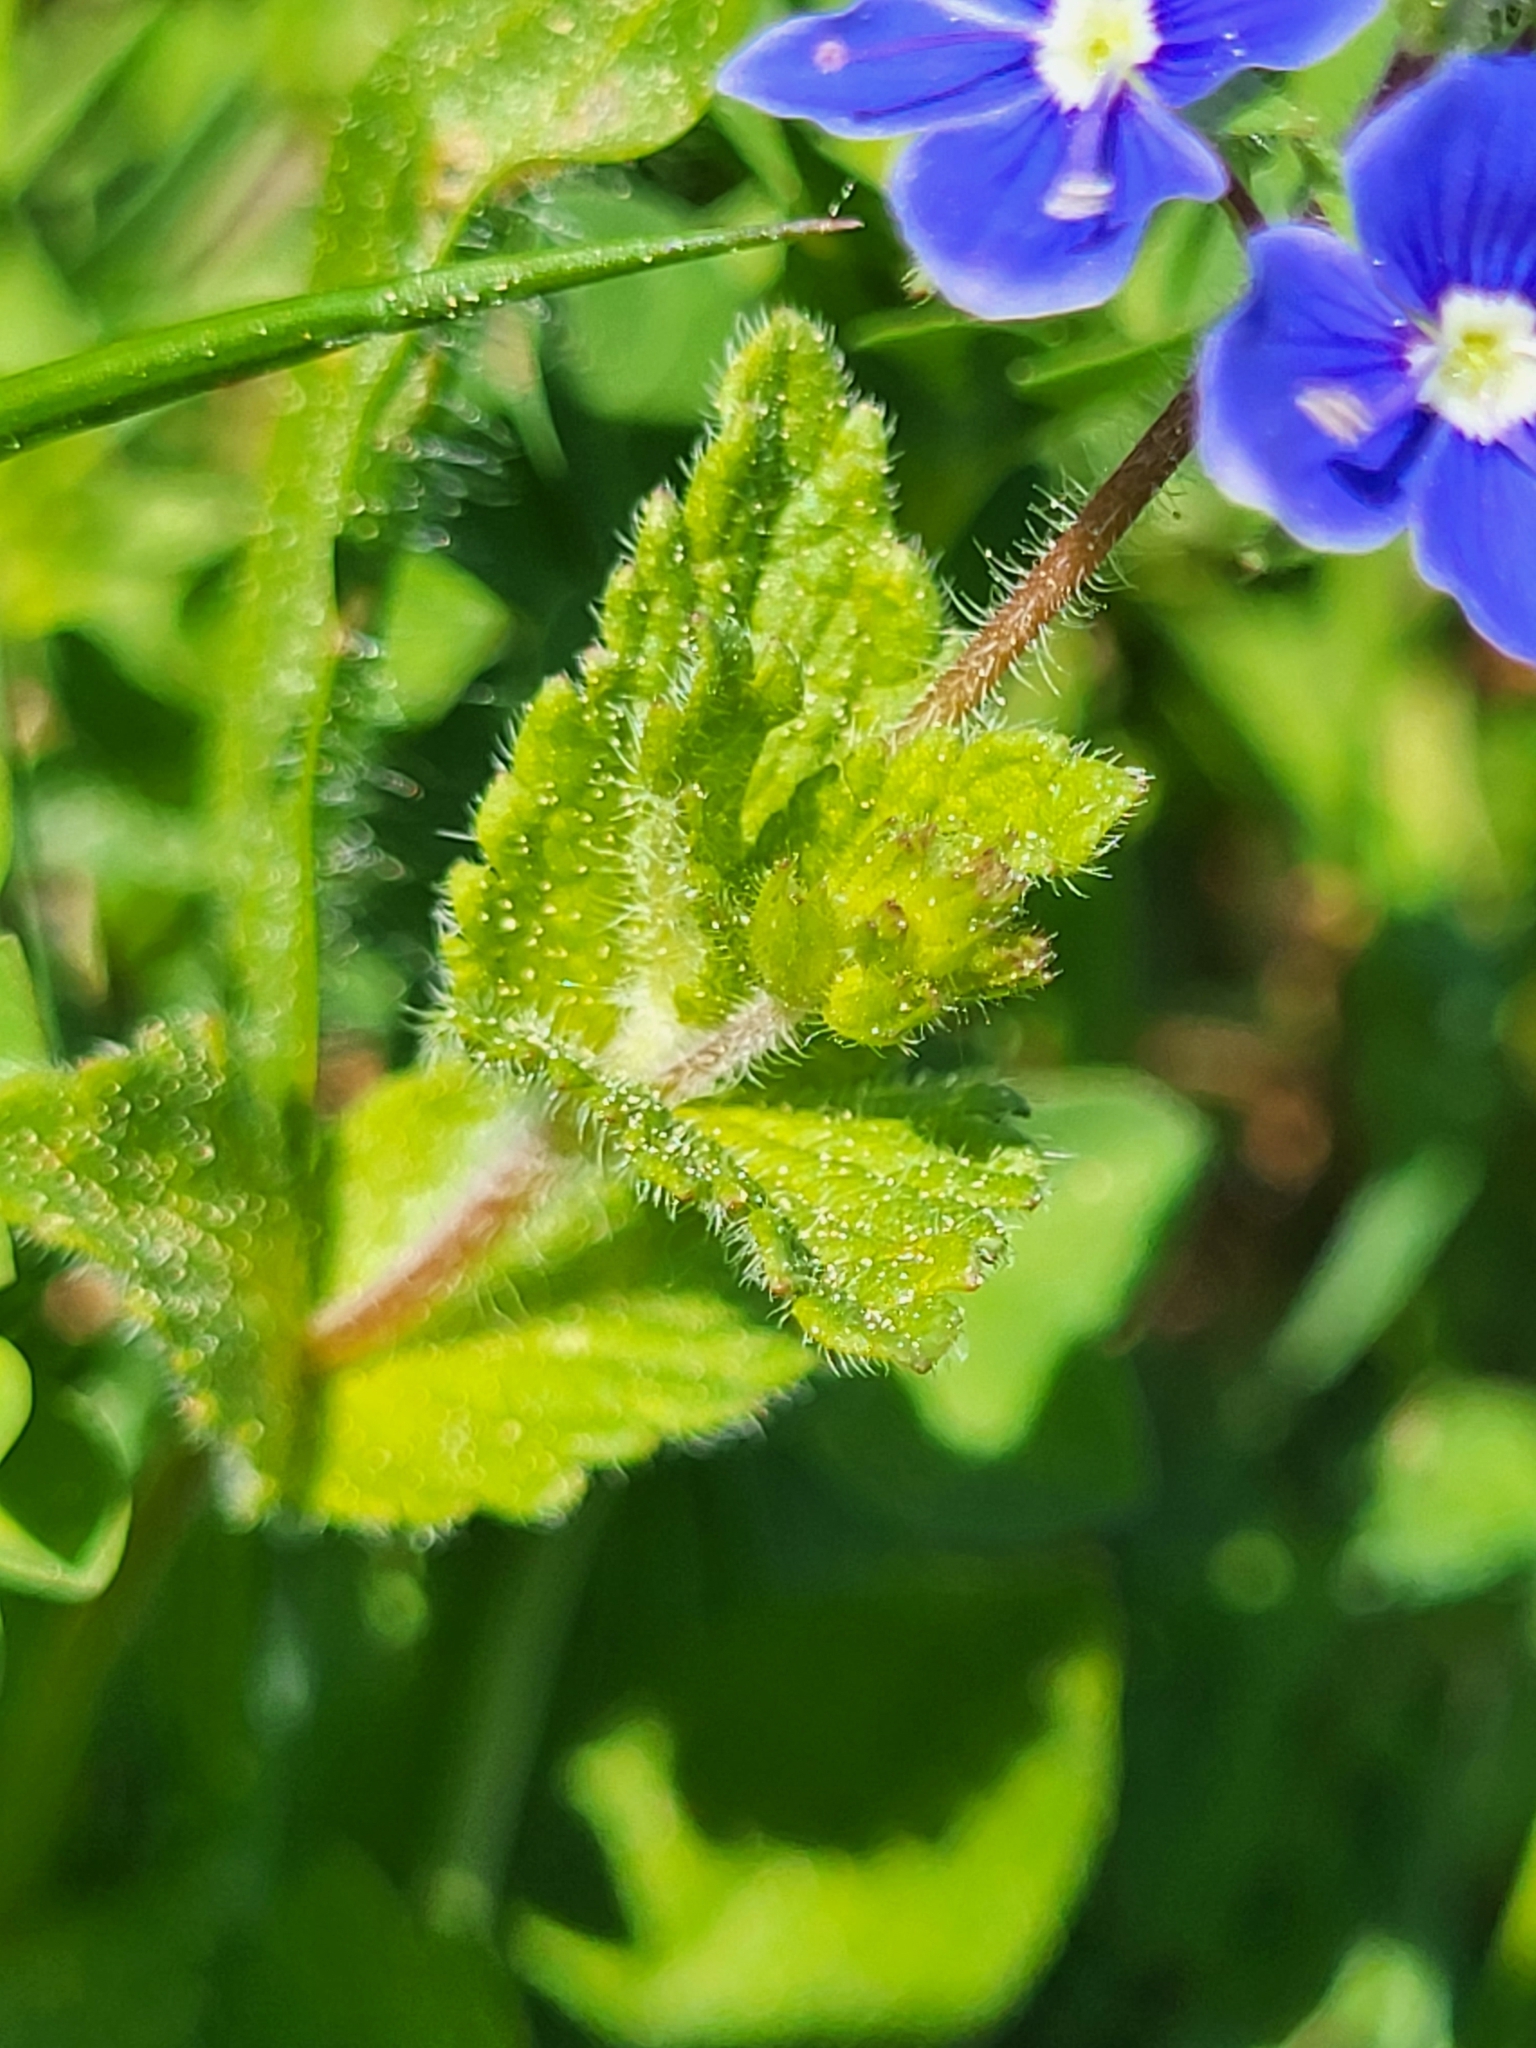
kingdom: Plantae
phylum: Tracheophyta
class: Magnoliopsida
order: Lamiales
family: Plantaginaceae
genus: Veronica
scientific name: Veronica chamaedrys
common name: Germander speedwell
